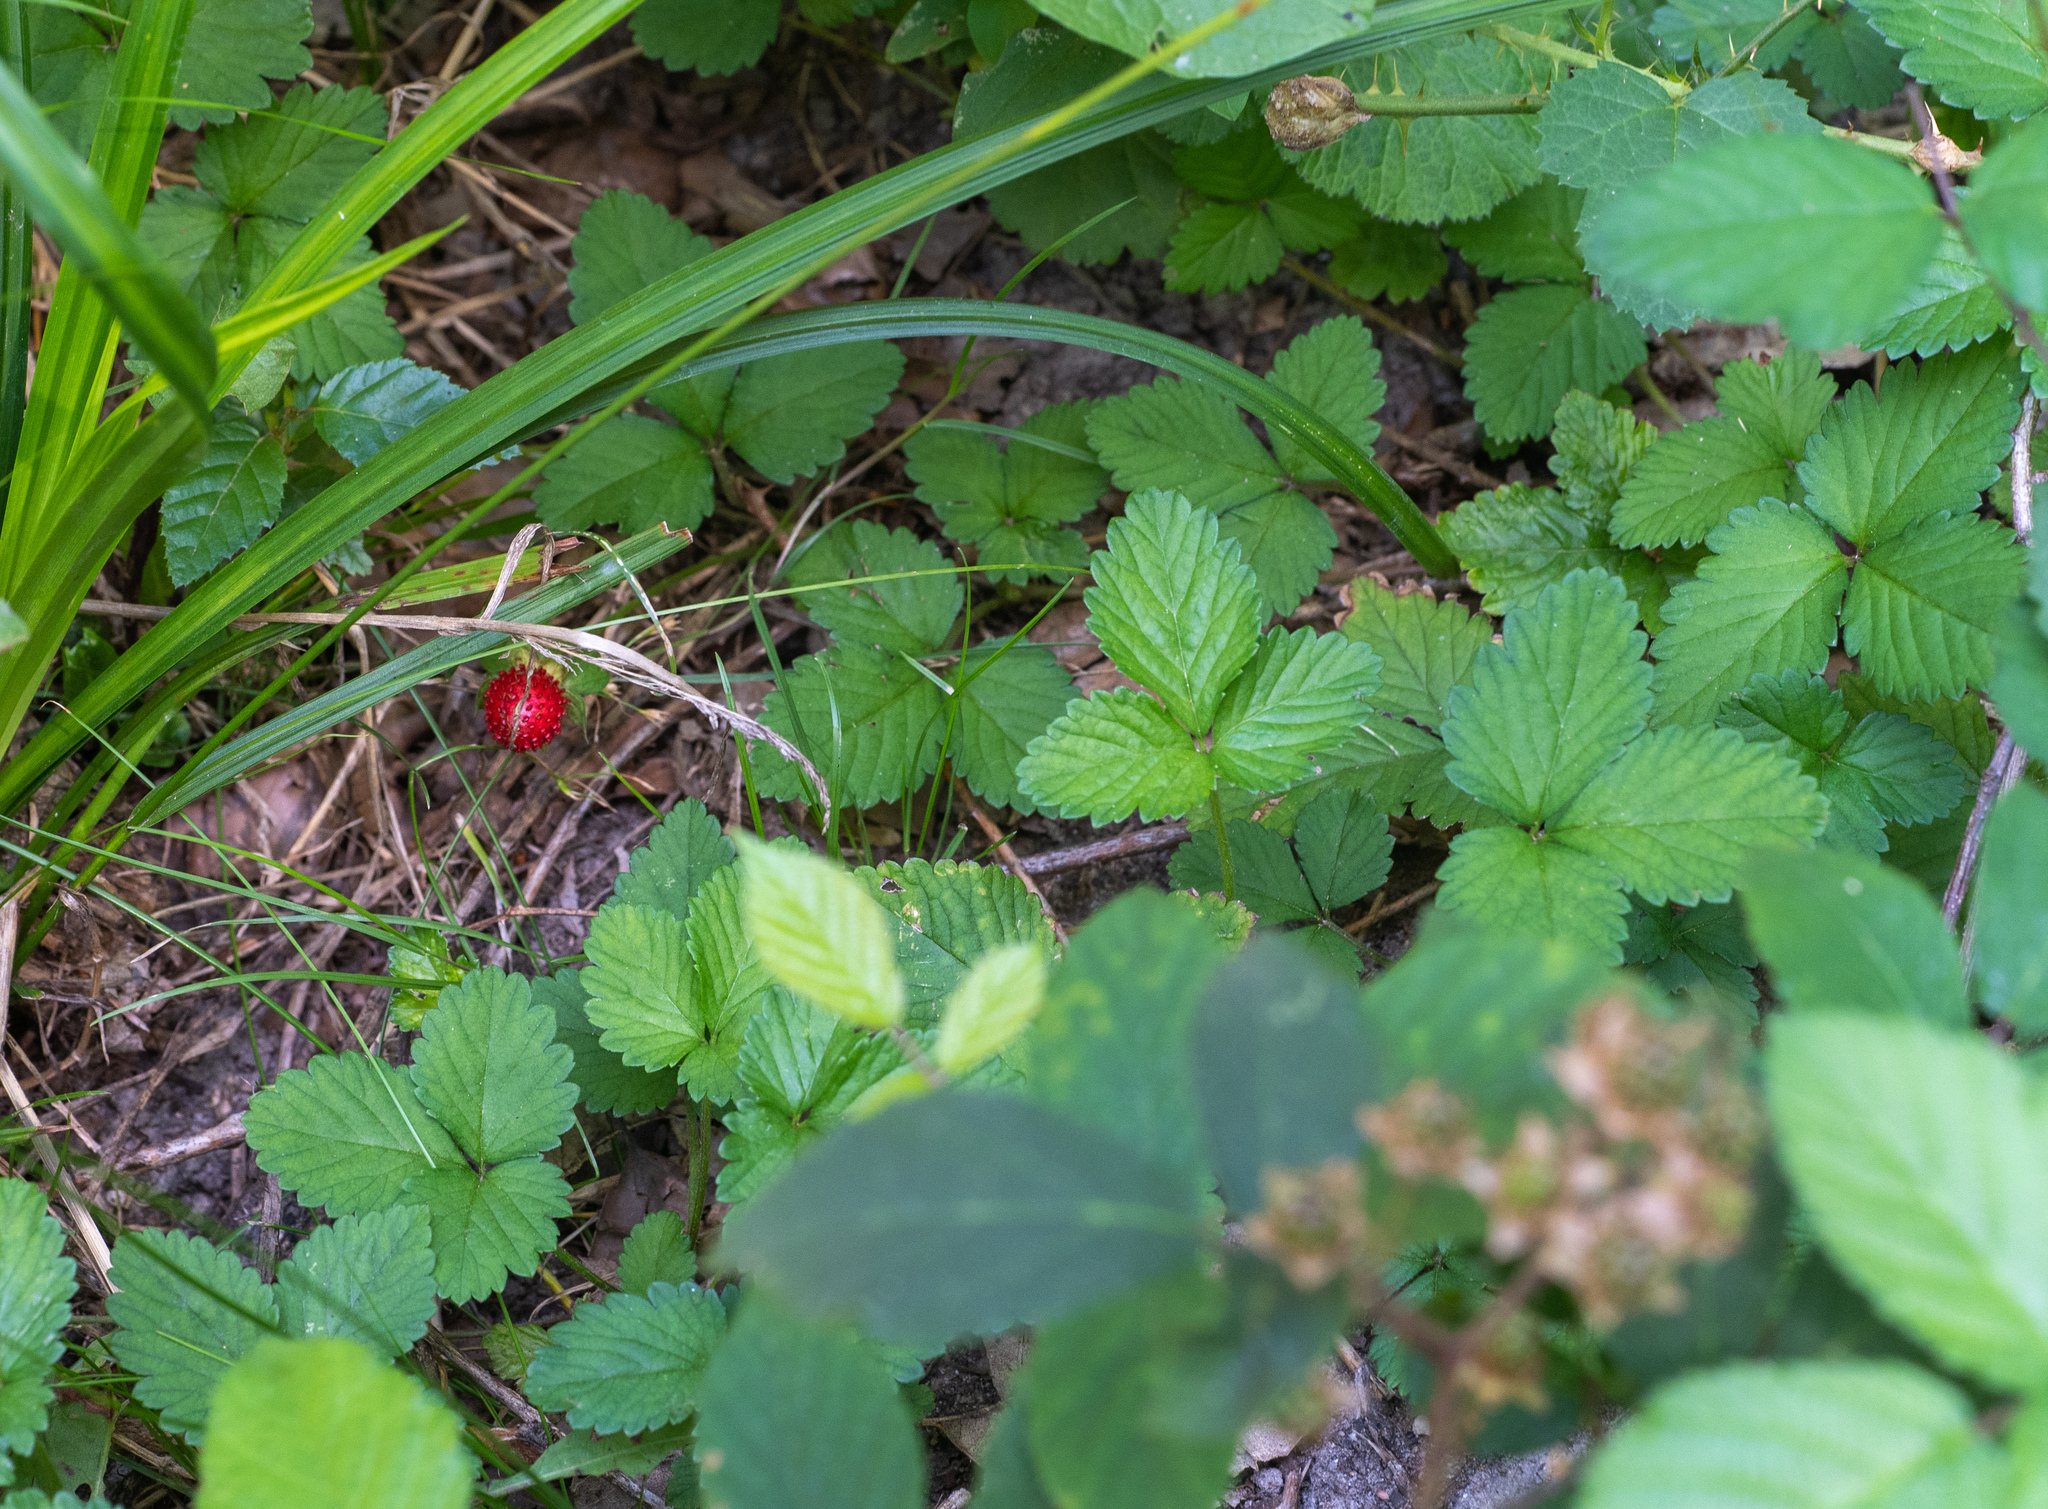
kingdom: Plantae
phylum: Tracheophyta
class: Magnoliopsida
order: Rosales
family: Rosaceae
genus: Potentilla
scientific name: Potentilla indica
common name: Yellow-flowered strawberry
